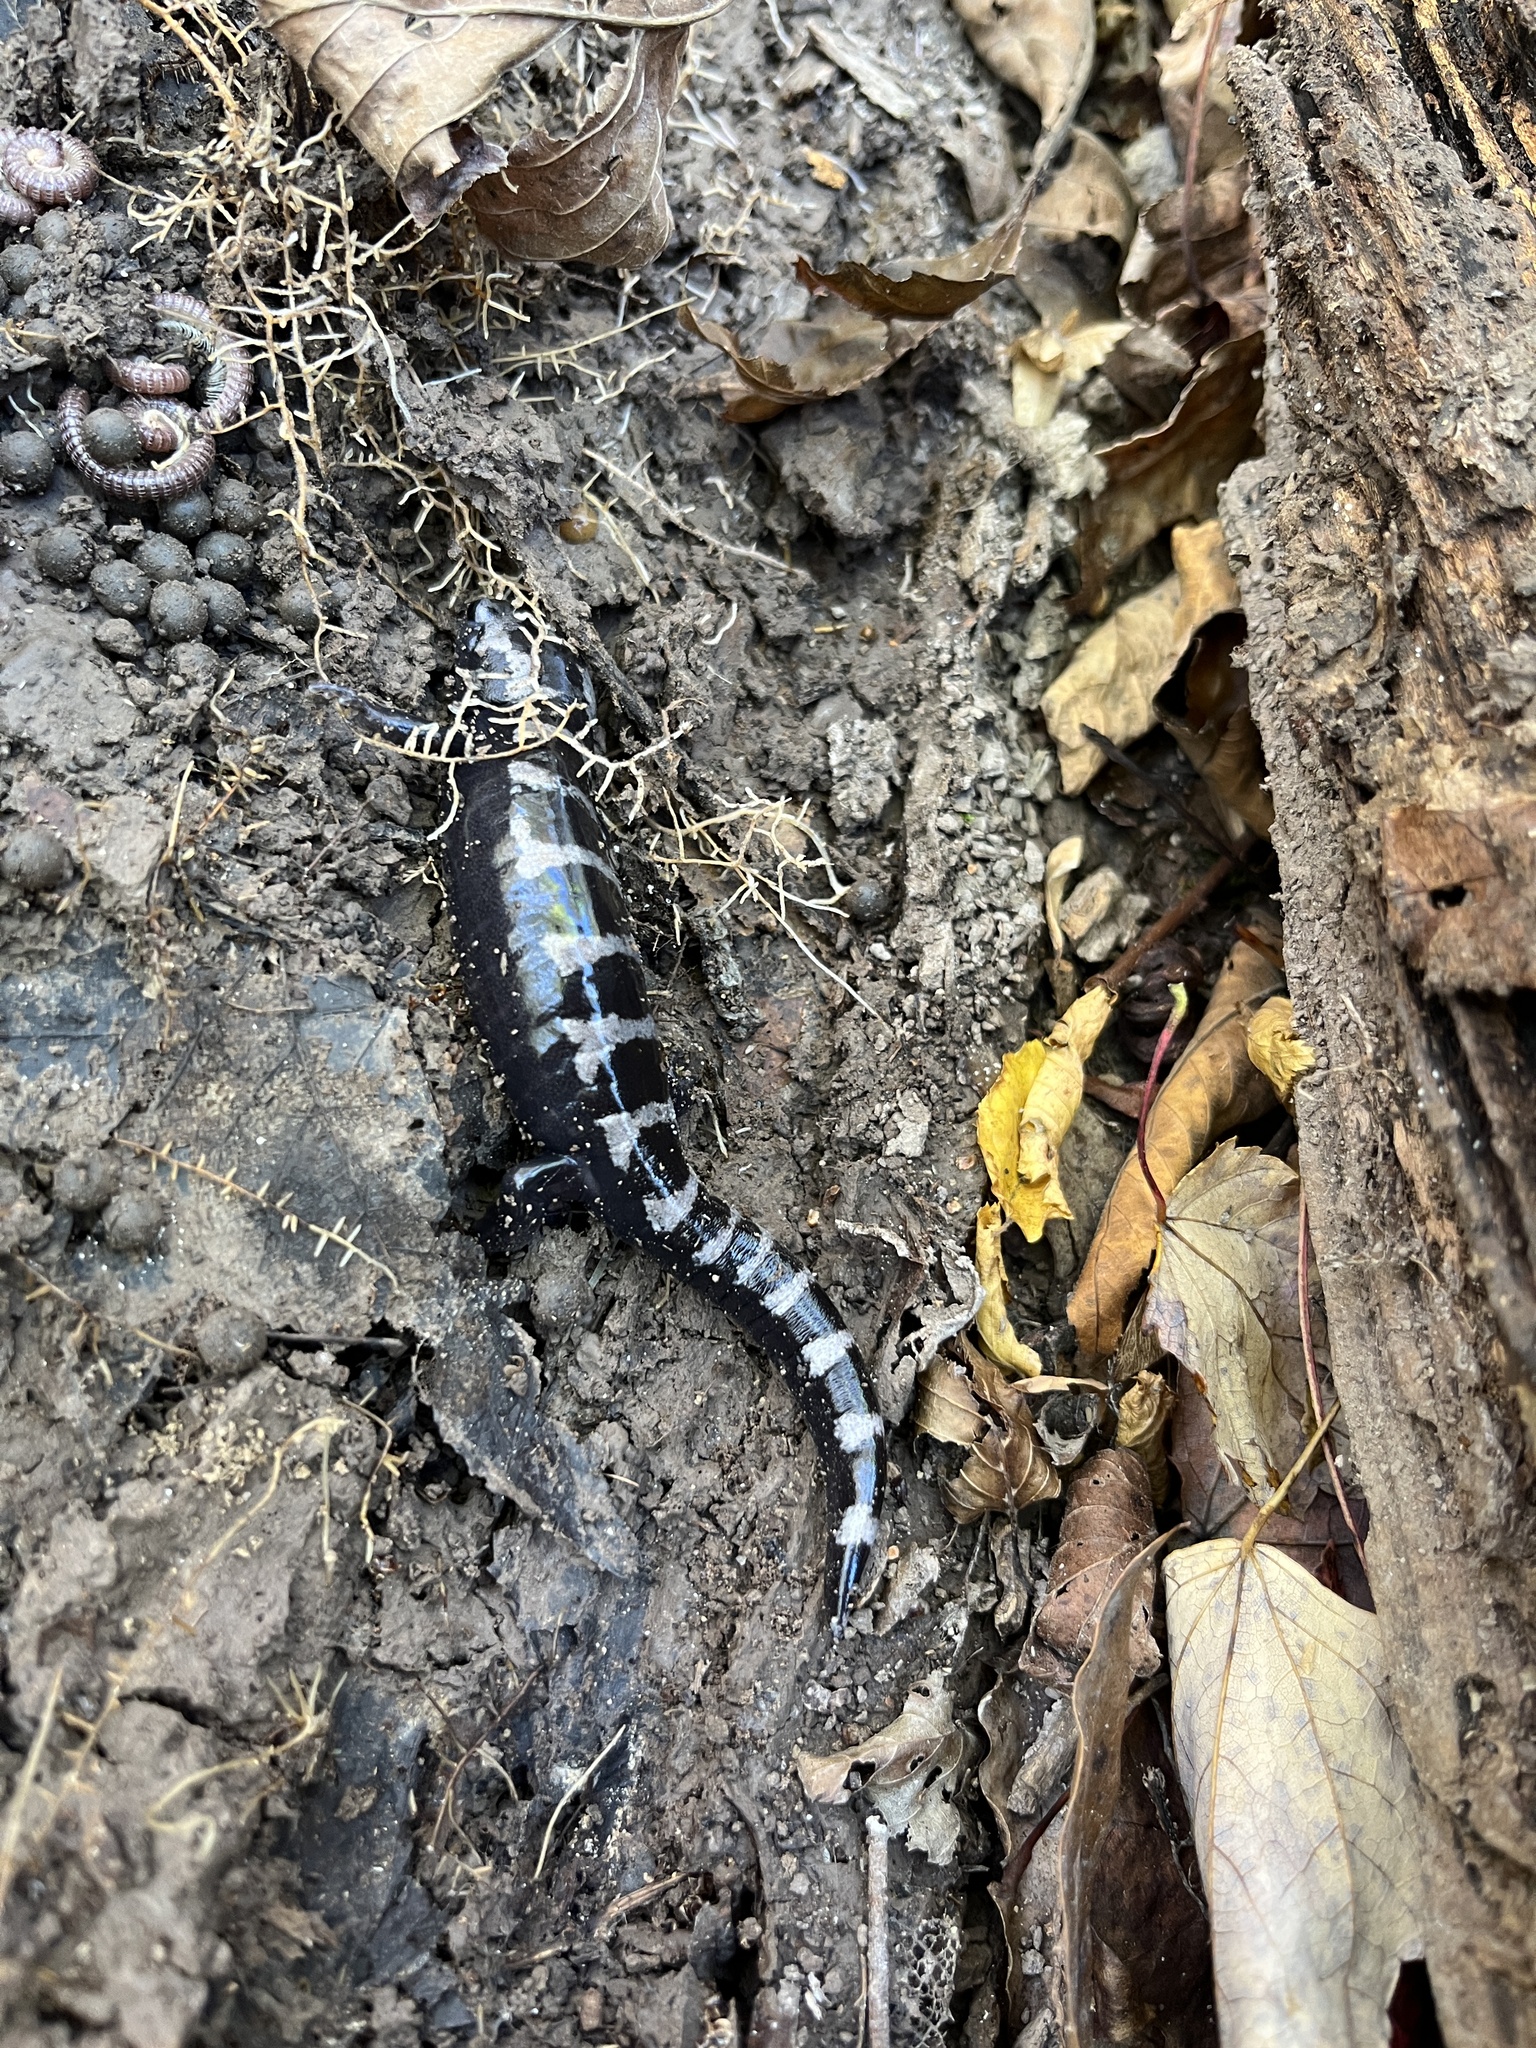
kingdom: Animalia
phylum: Chordata
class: Amphibia
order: Caudata
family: Ambystomatidae
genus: Ambystoma
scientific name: Ambystoma opacum
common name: Marbled salamander
